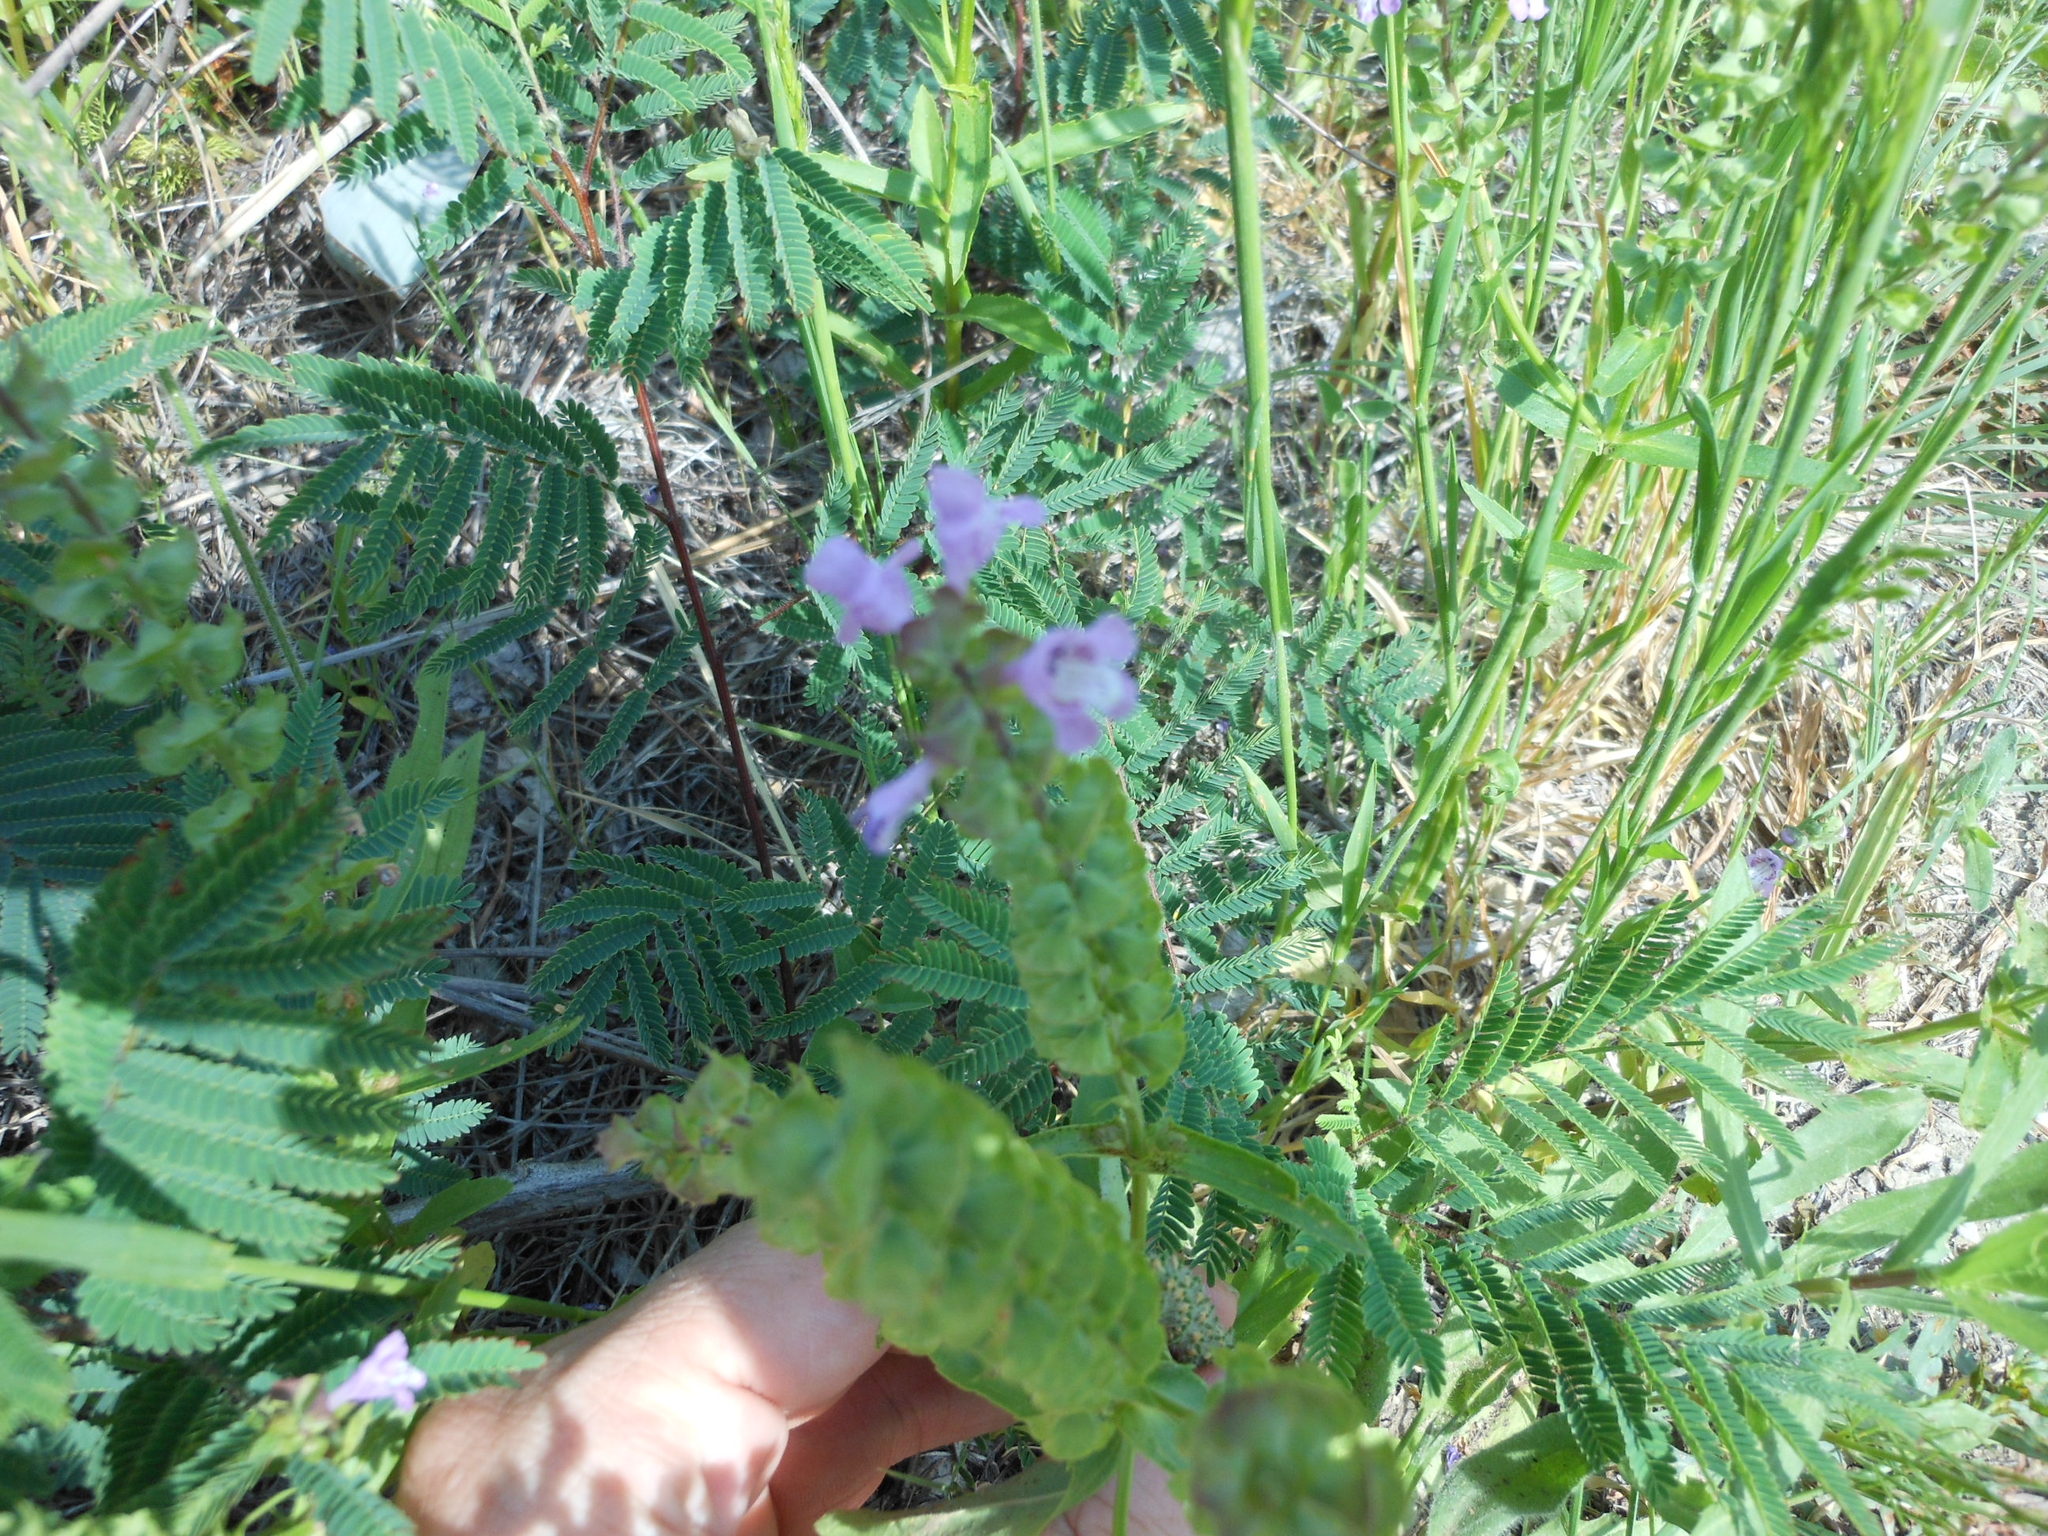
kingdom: Plantae
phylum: Tracheophyta
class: Magnoliopsida
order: Lamiales
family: Lamiaceae
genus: Warnockia
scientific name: Warnockia scutellarioides
